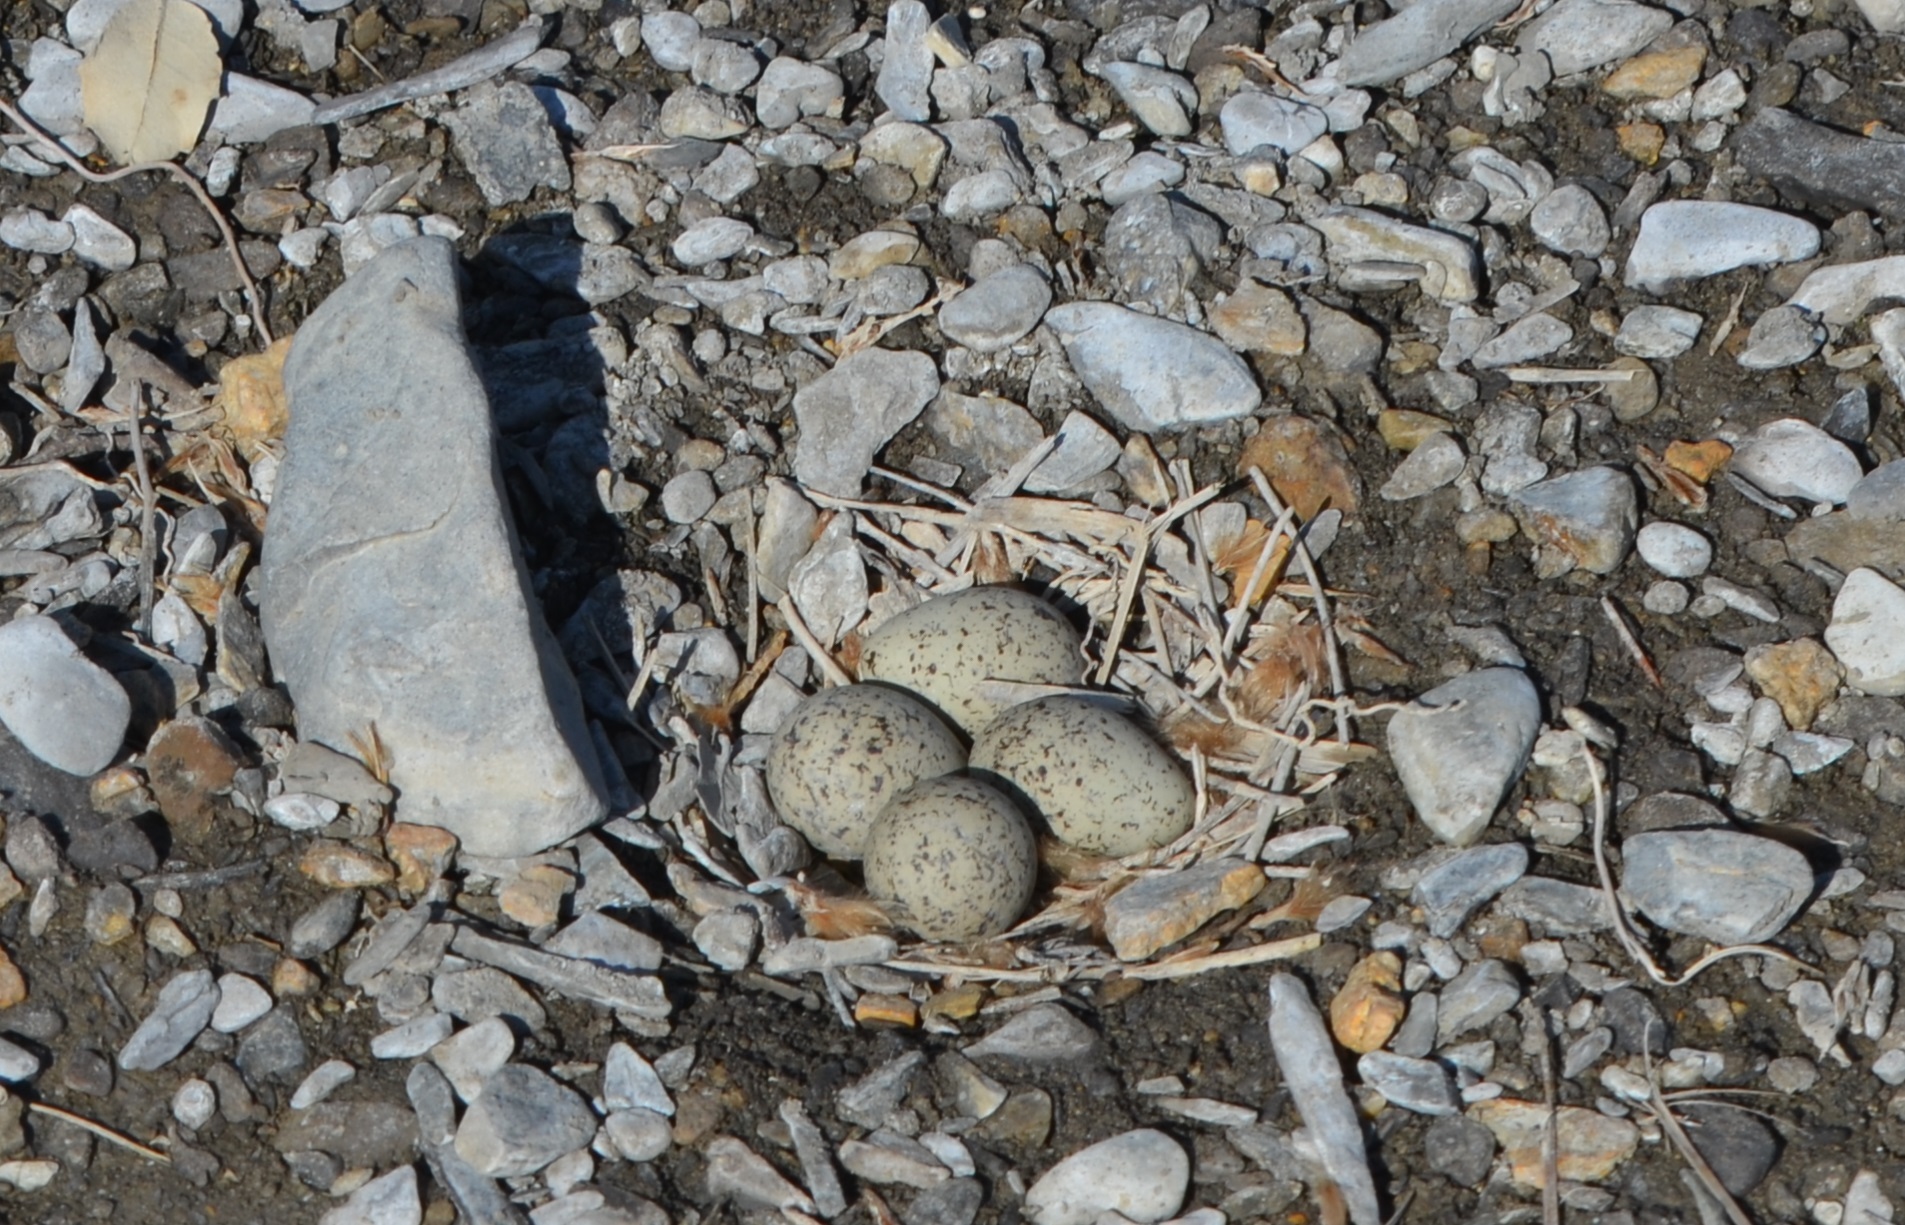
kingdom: Animalia
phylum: Chordata
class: Aves
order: Charadriiformes
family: Charadriidae
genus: Charadrius
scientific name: Charadrius dubius
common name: Little ringed plover
